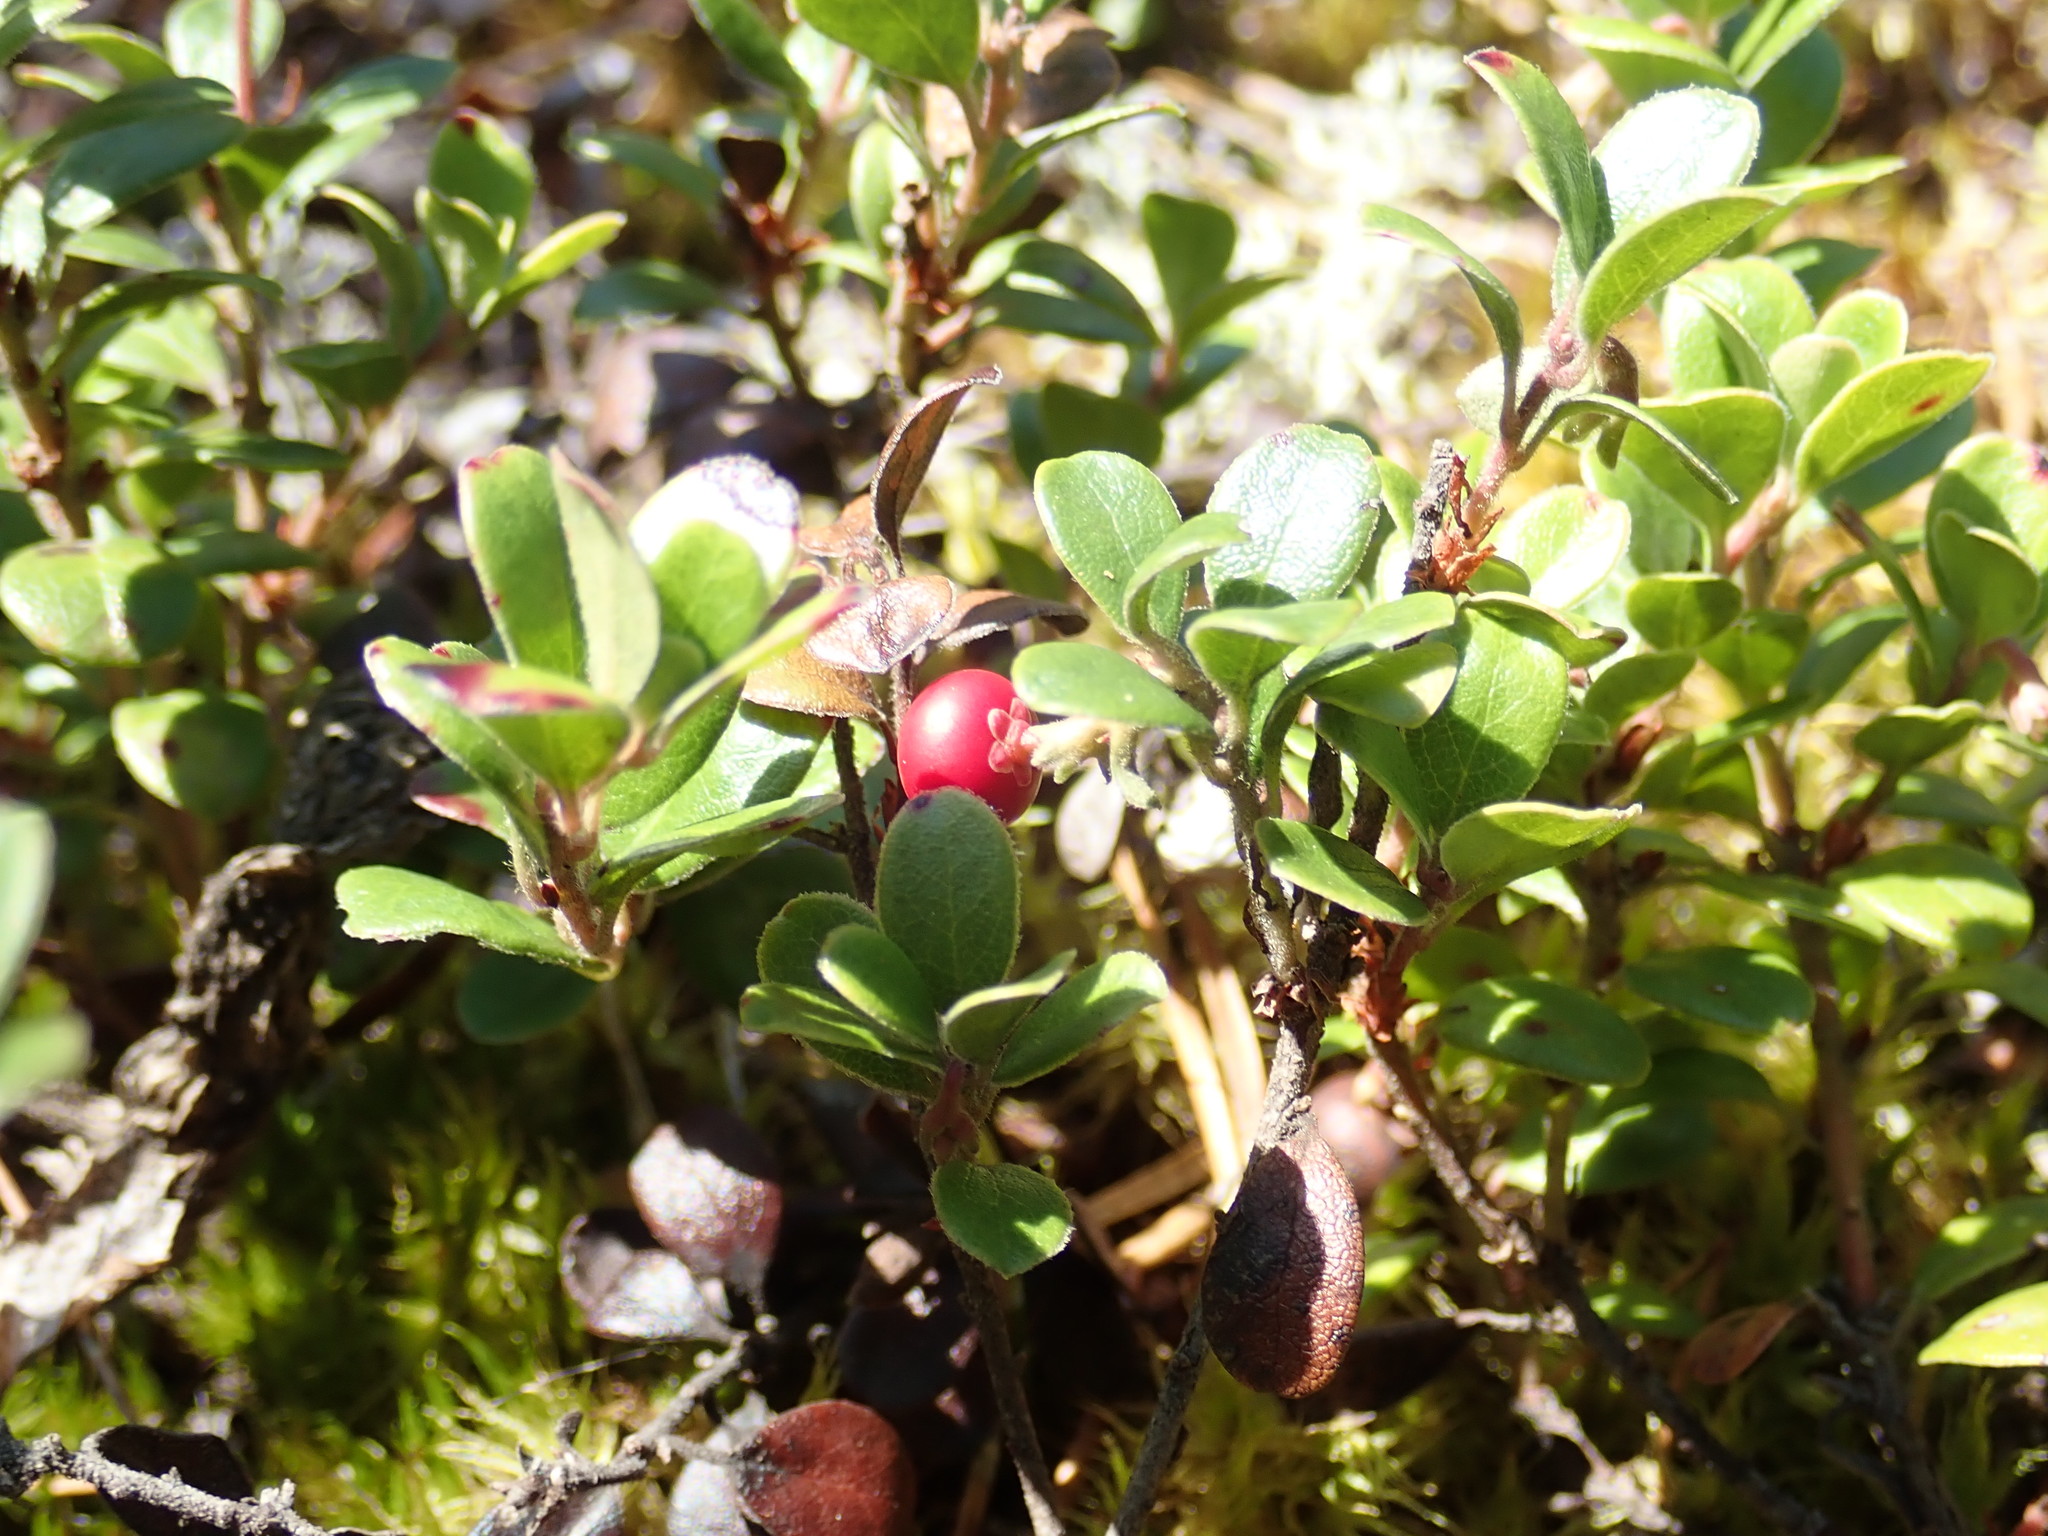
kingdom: Plantae
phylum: Tracheophyta
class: Magnoliopsida
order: Ericales
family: Ericaceae
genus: Arctostaphylos
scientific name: Arctostaphylos uva-ursi
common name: Bearberry
